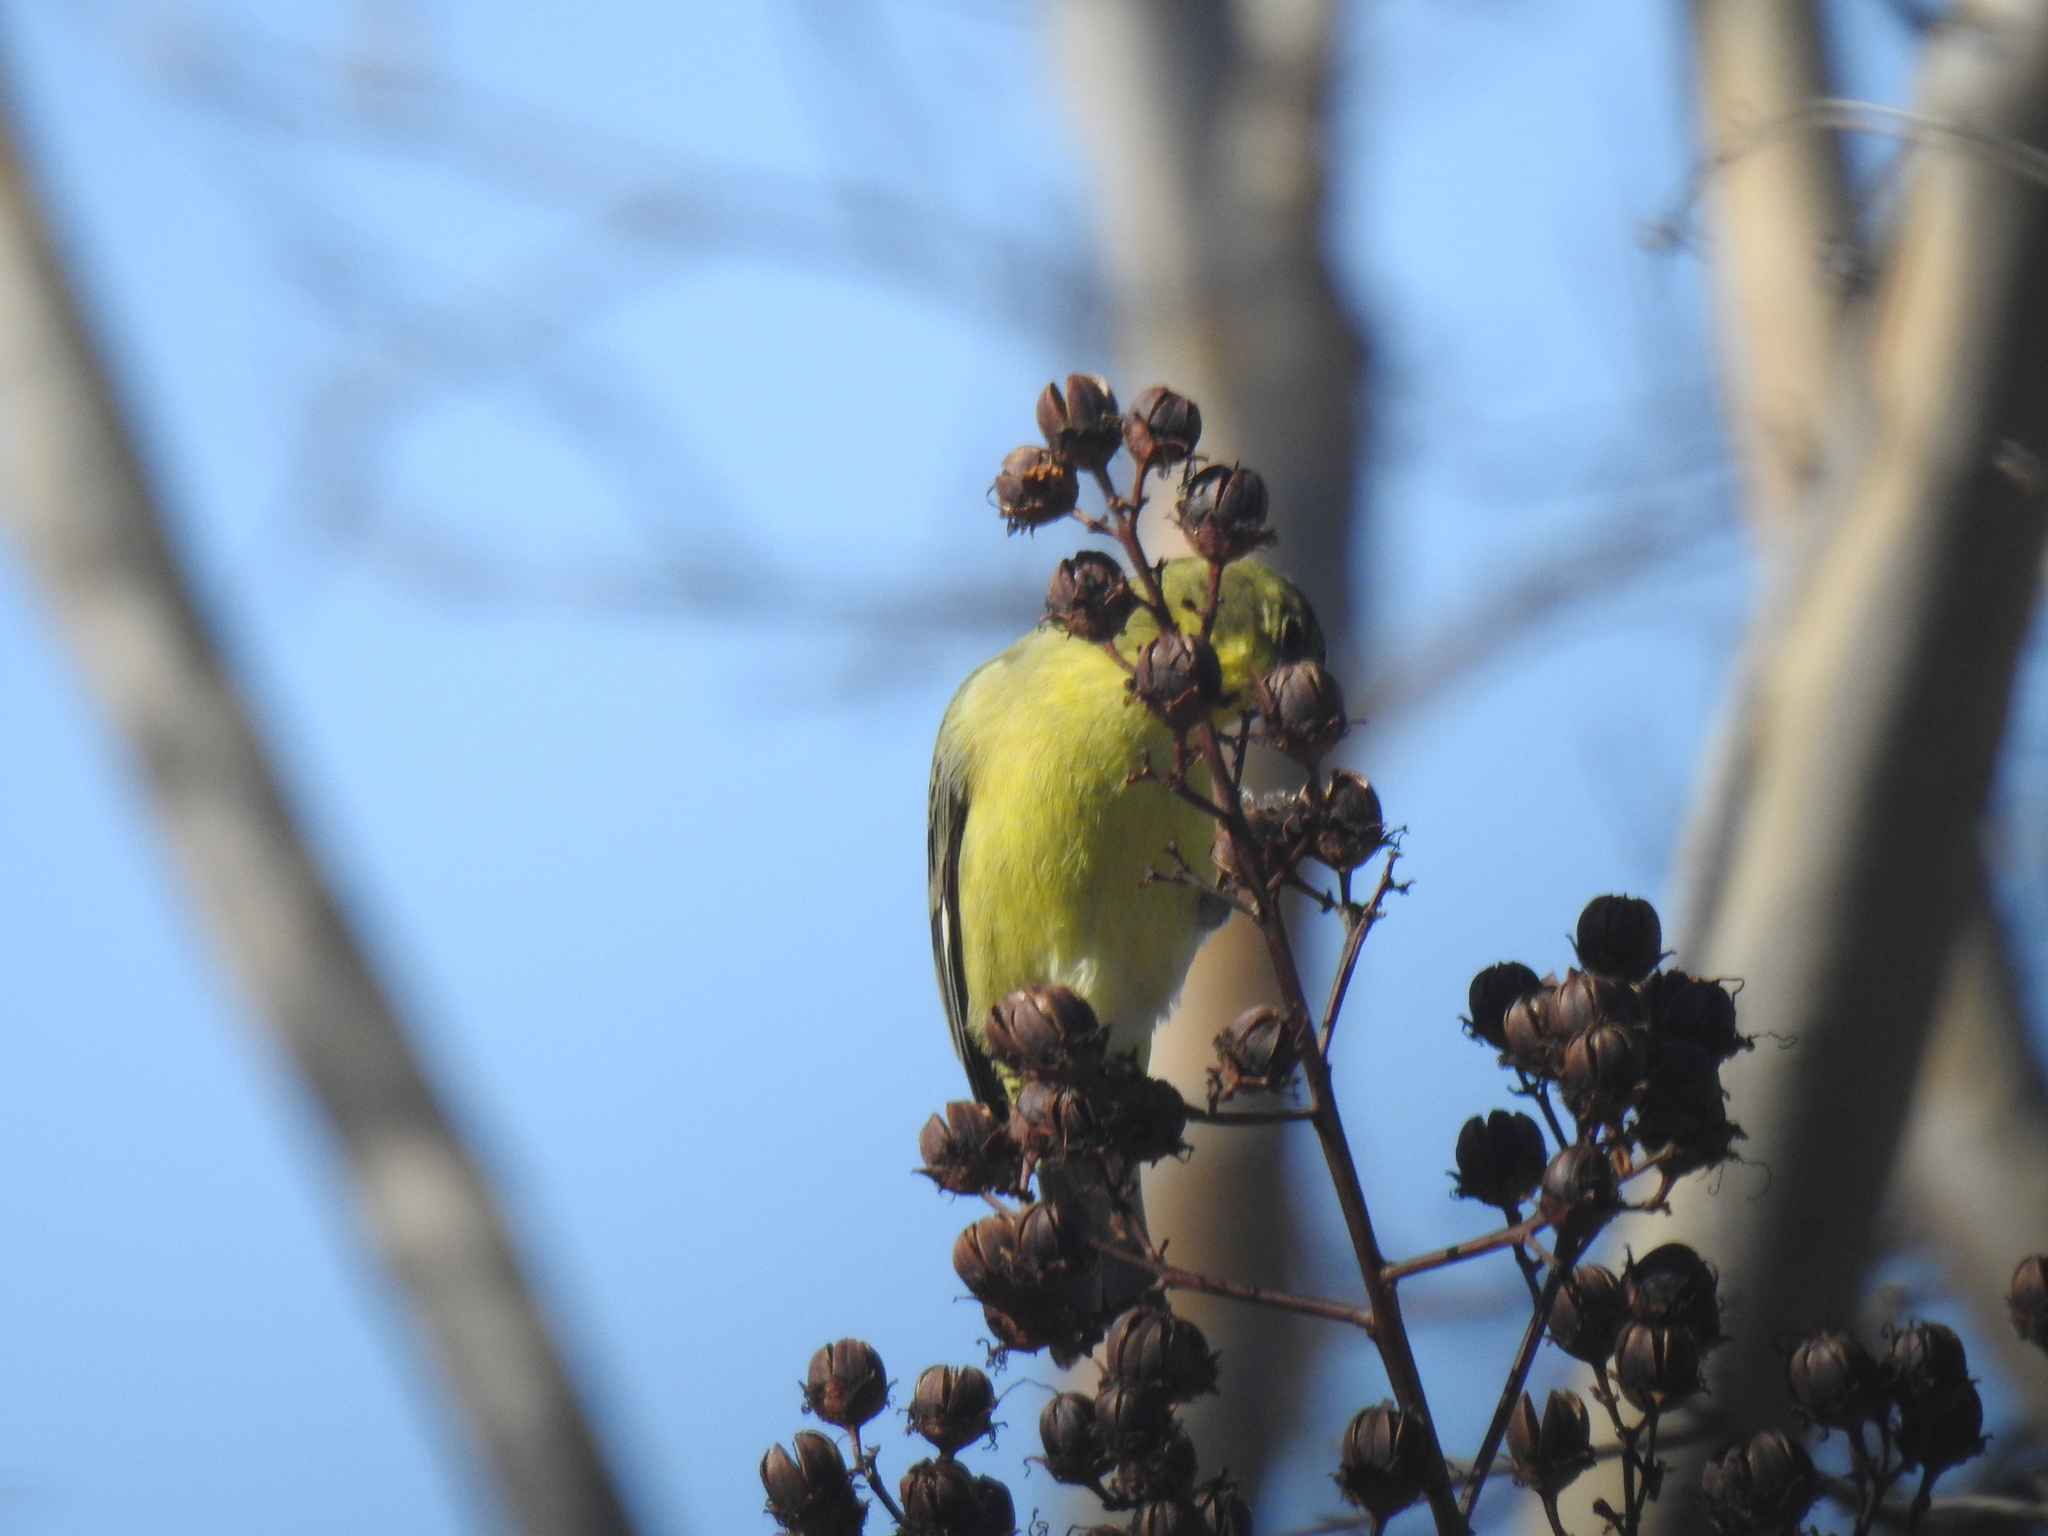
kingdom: Animalia
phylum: Chordata
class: Aves
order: Passeriformes
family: Fringillidae
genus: Spinus
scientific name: Spinus psaltria
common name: Lesser goldfinch
